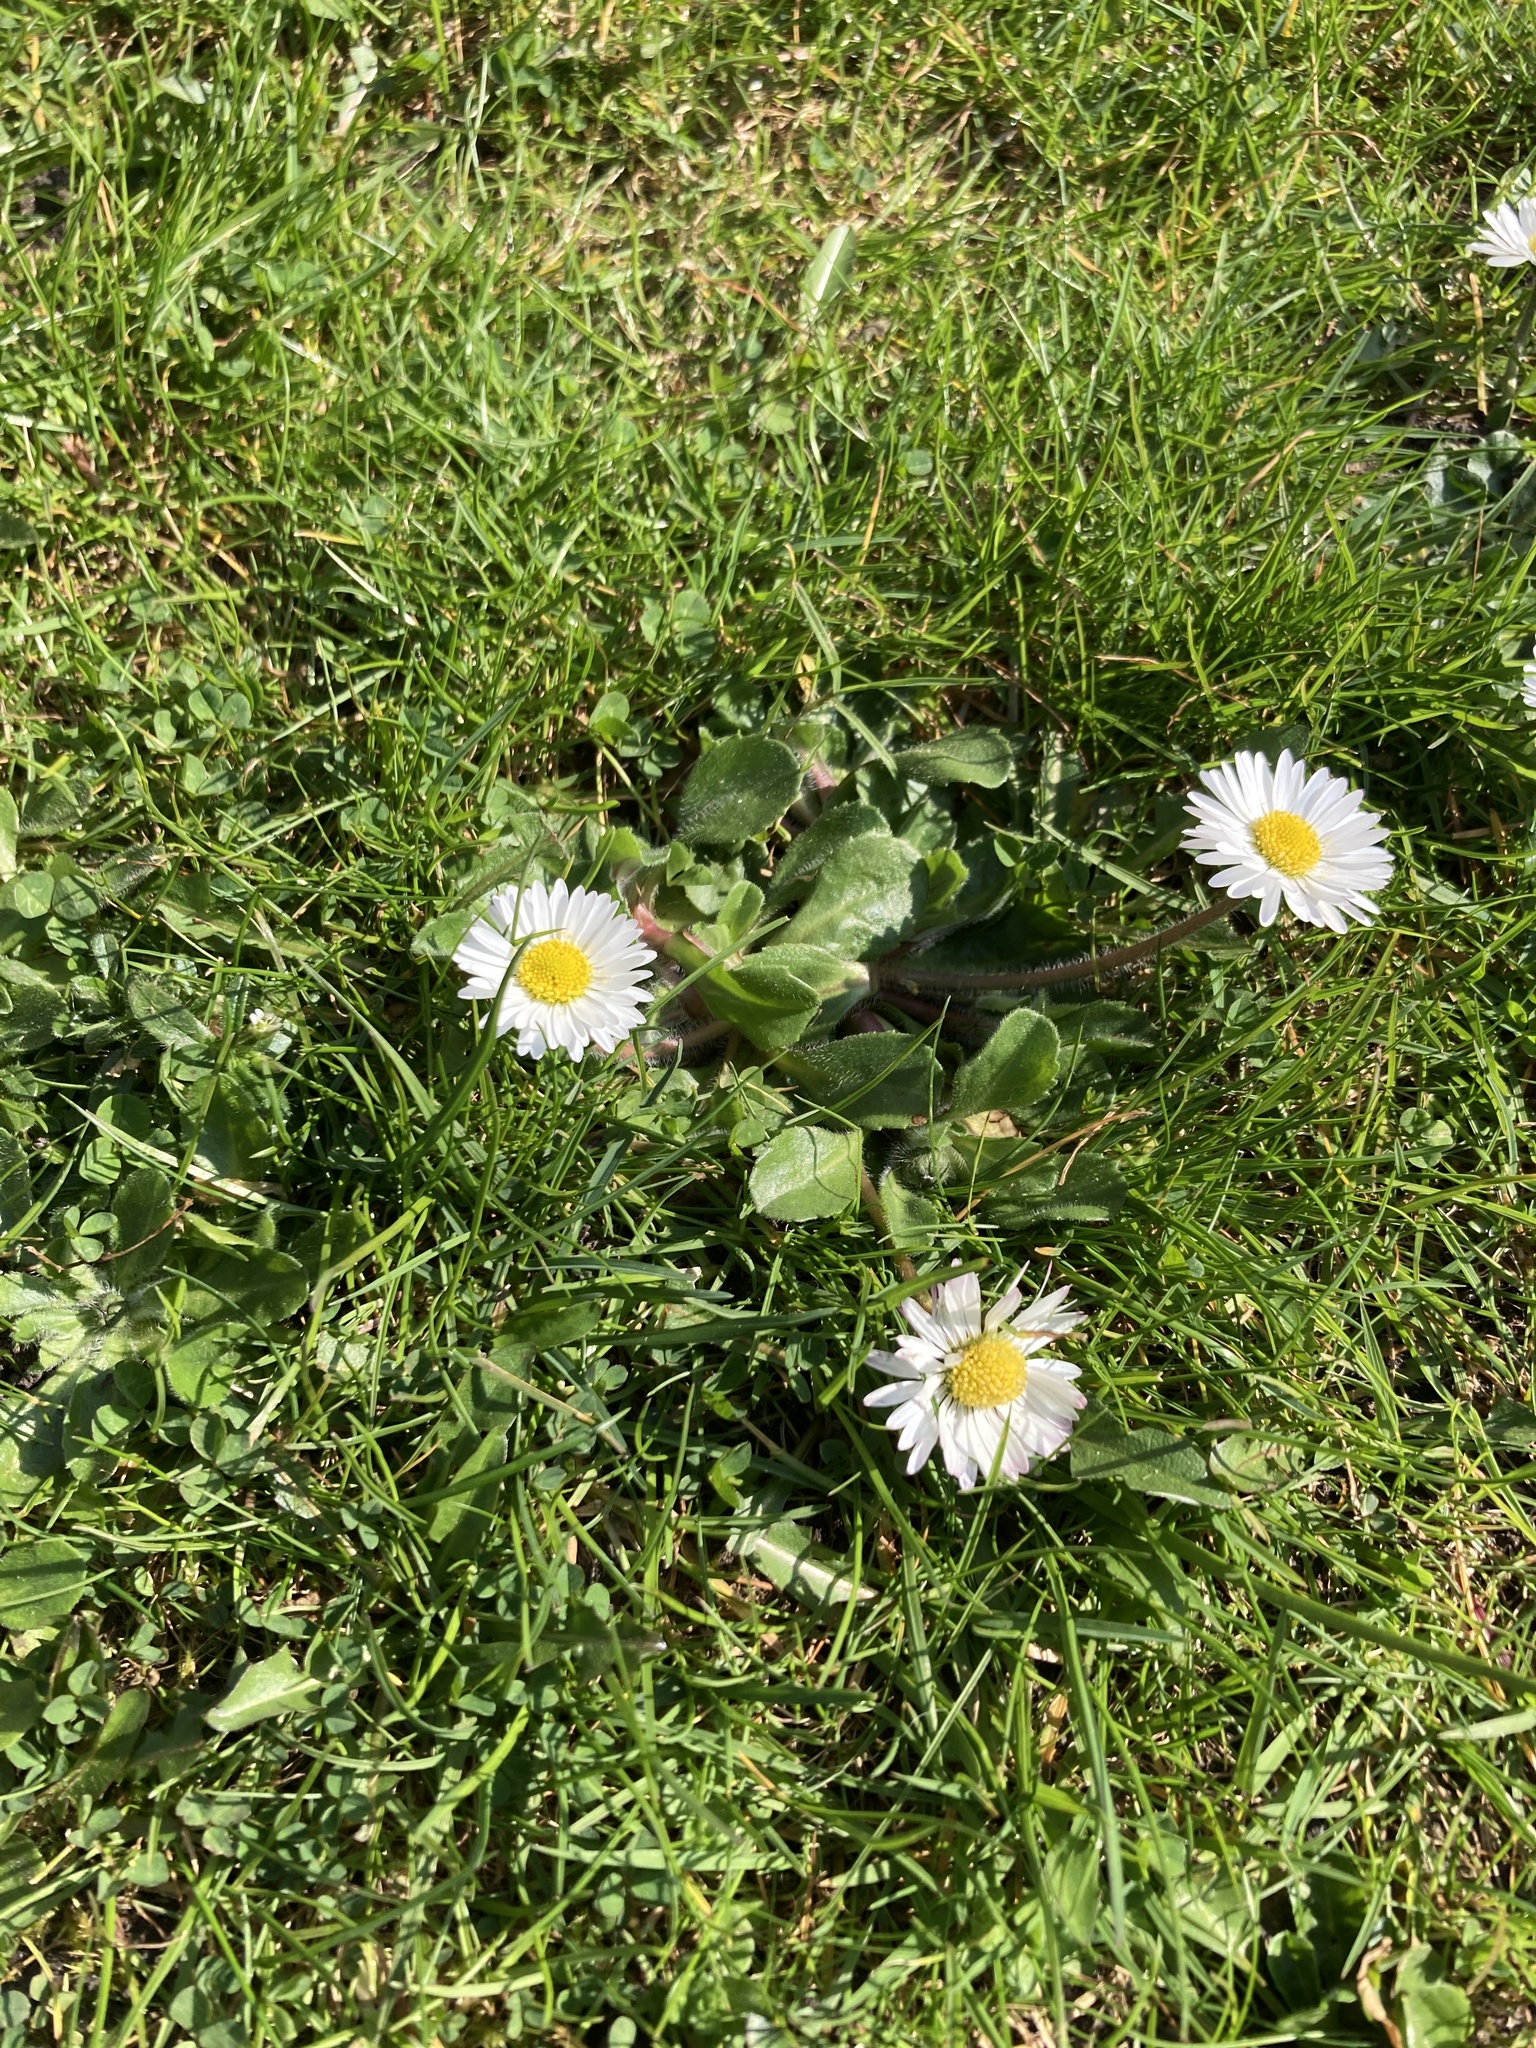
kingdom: Plantae
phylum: Tracheophyta
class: Magnoliopsida
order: Asterales
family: Asteraceae
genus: Bellis
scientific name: Bellis perennis
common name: Lawndaisy
